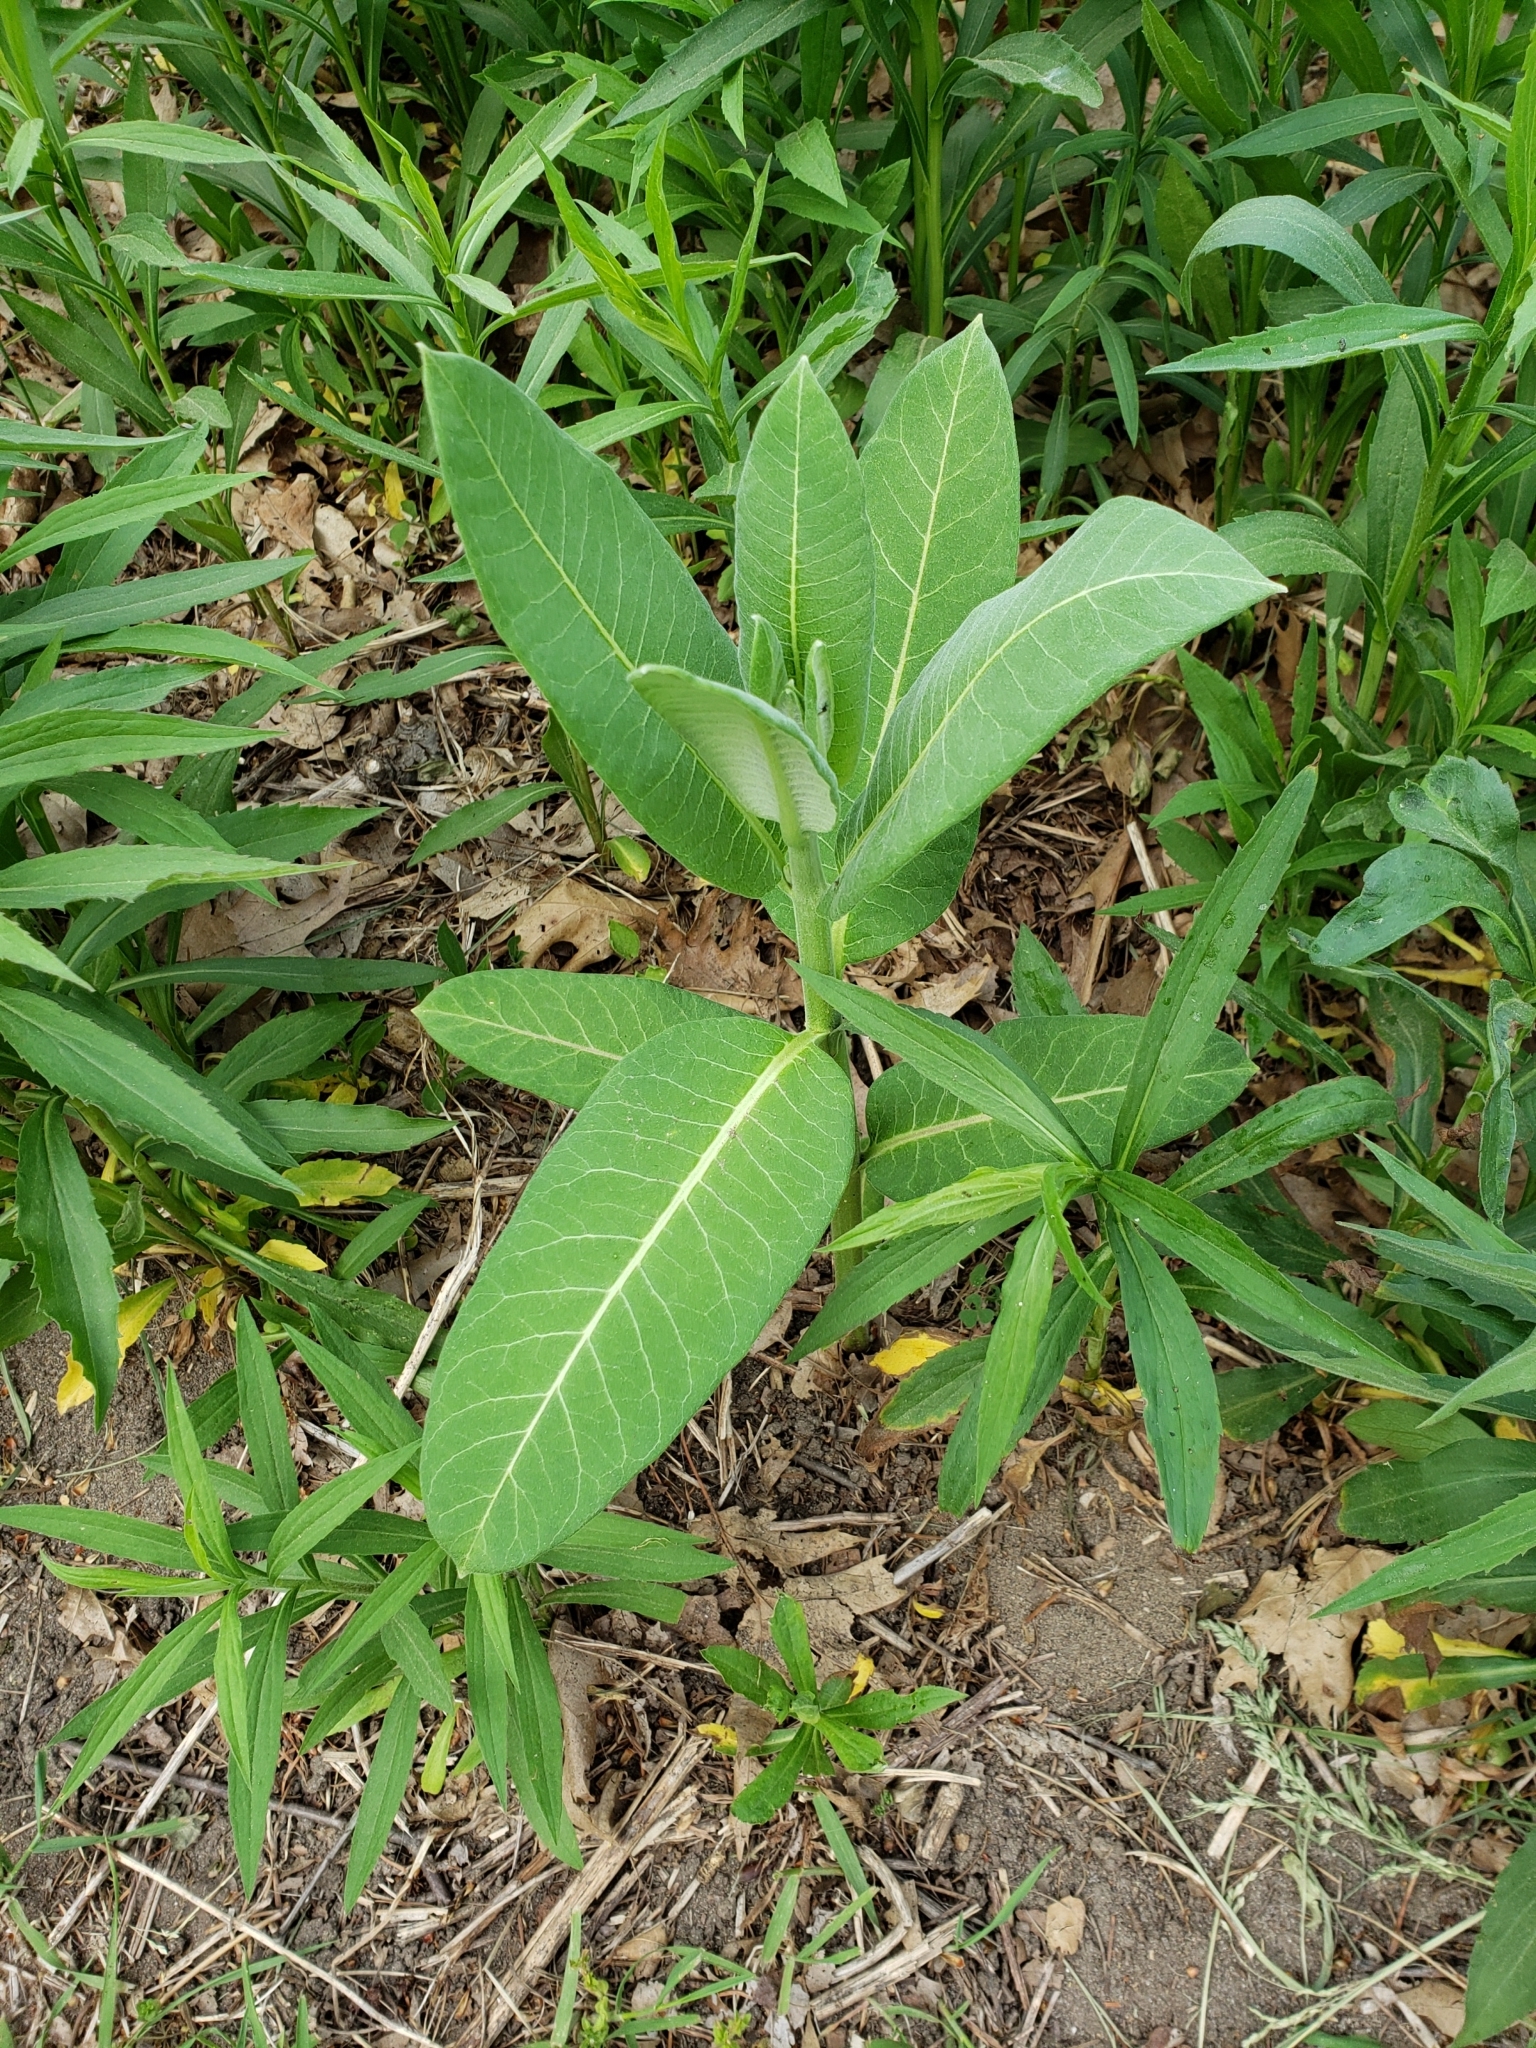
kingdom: Plantae
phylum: Tracheophyta
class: Magnoliopsida
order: Gentianales
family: Apocynaceae
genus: Asclepias
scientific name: Asclepias syriaca
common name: Common milkweed
